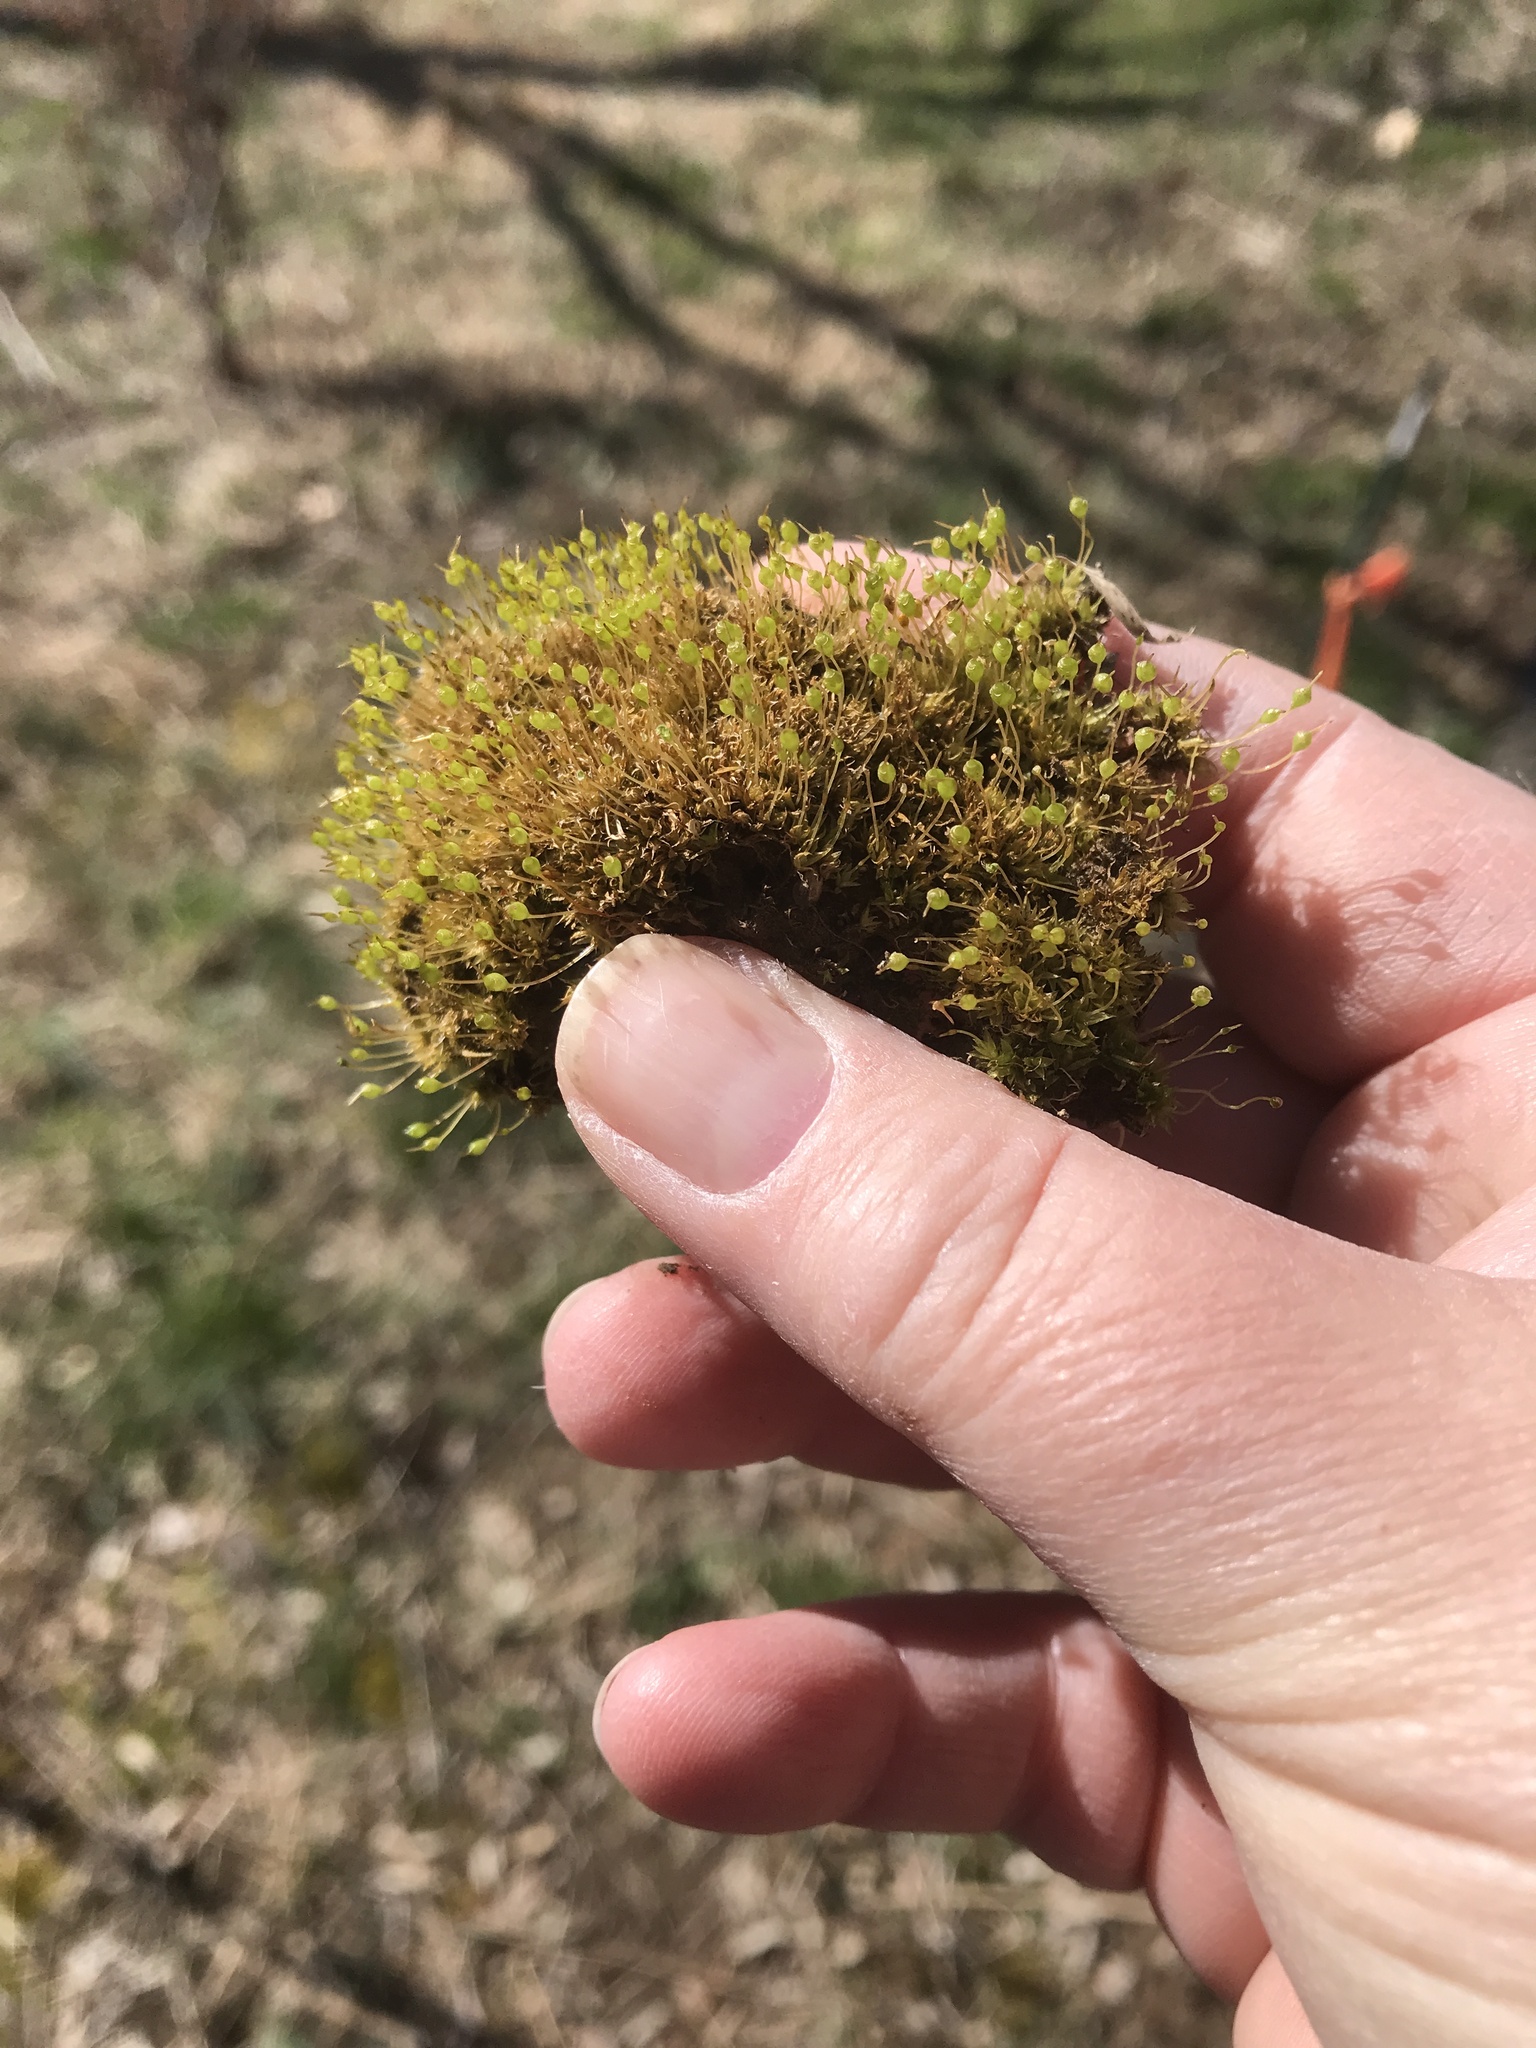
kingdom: Plantae
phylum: Bryophyta
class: Bryopsida
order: Funariales
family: Funariaceae
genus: Physcomitrium
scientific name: Physcomitrium pyriforme
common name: Common bladder-moss
